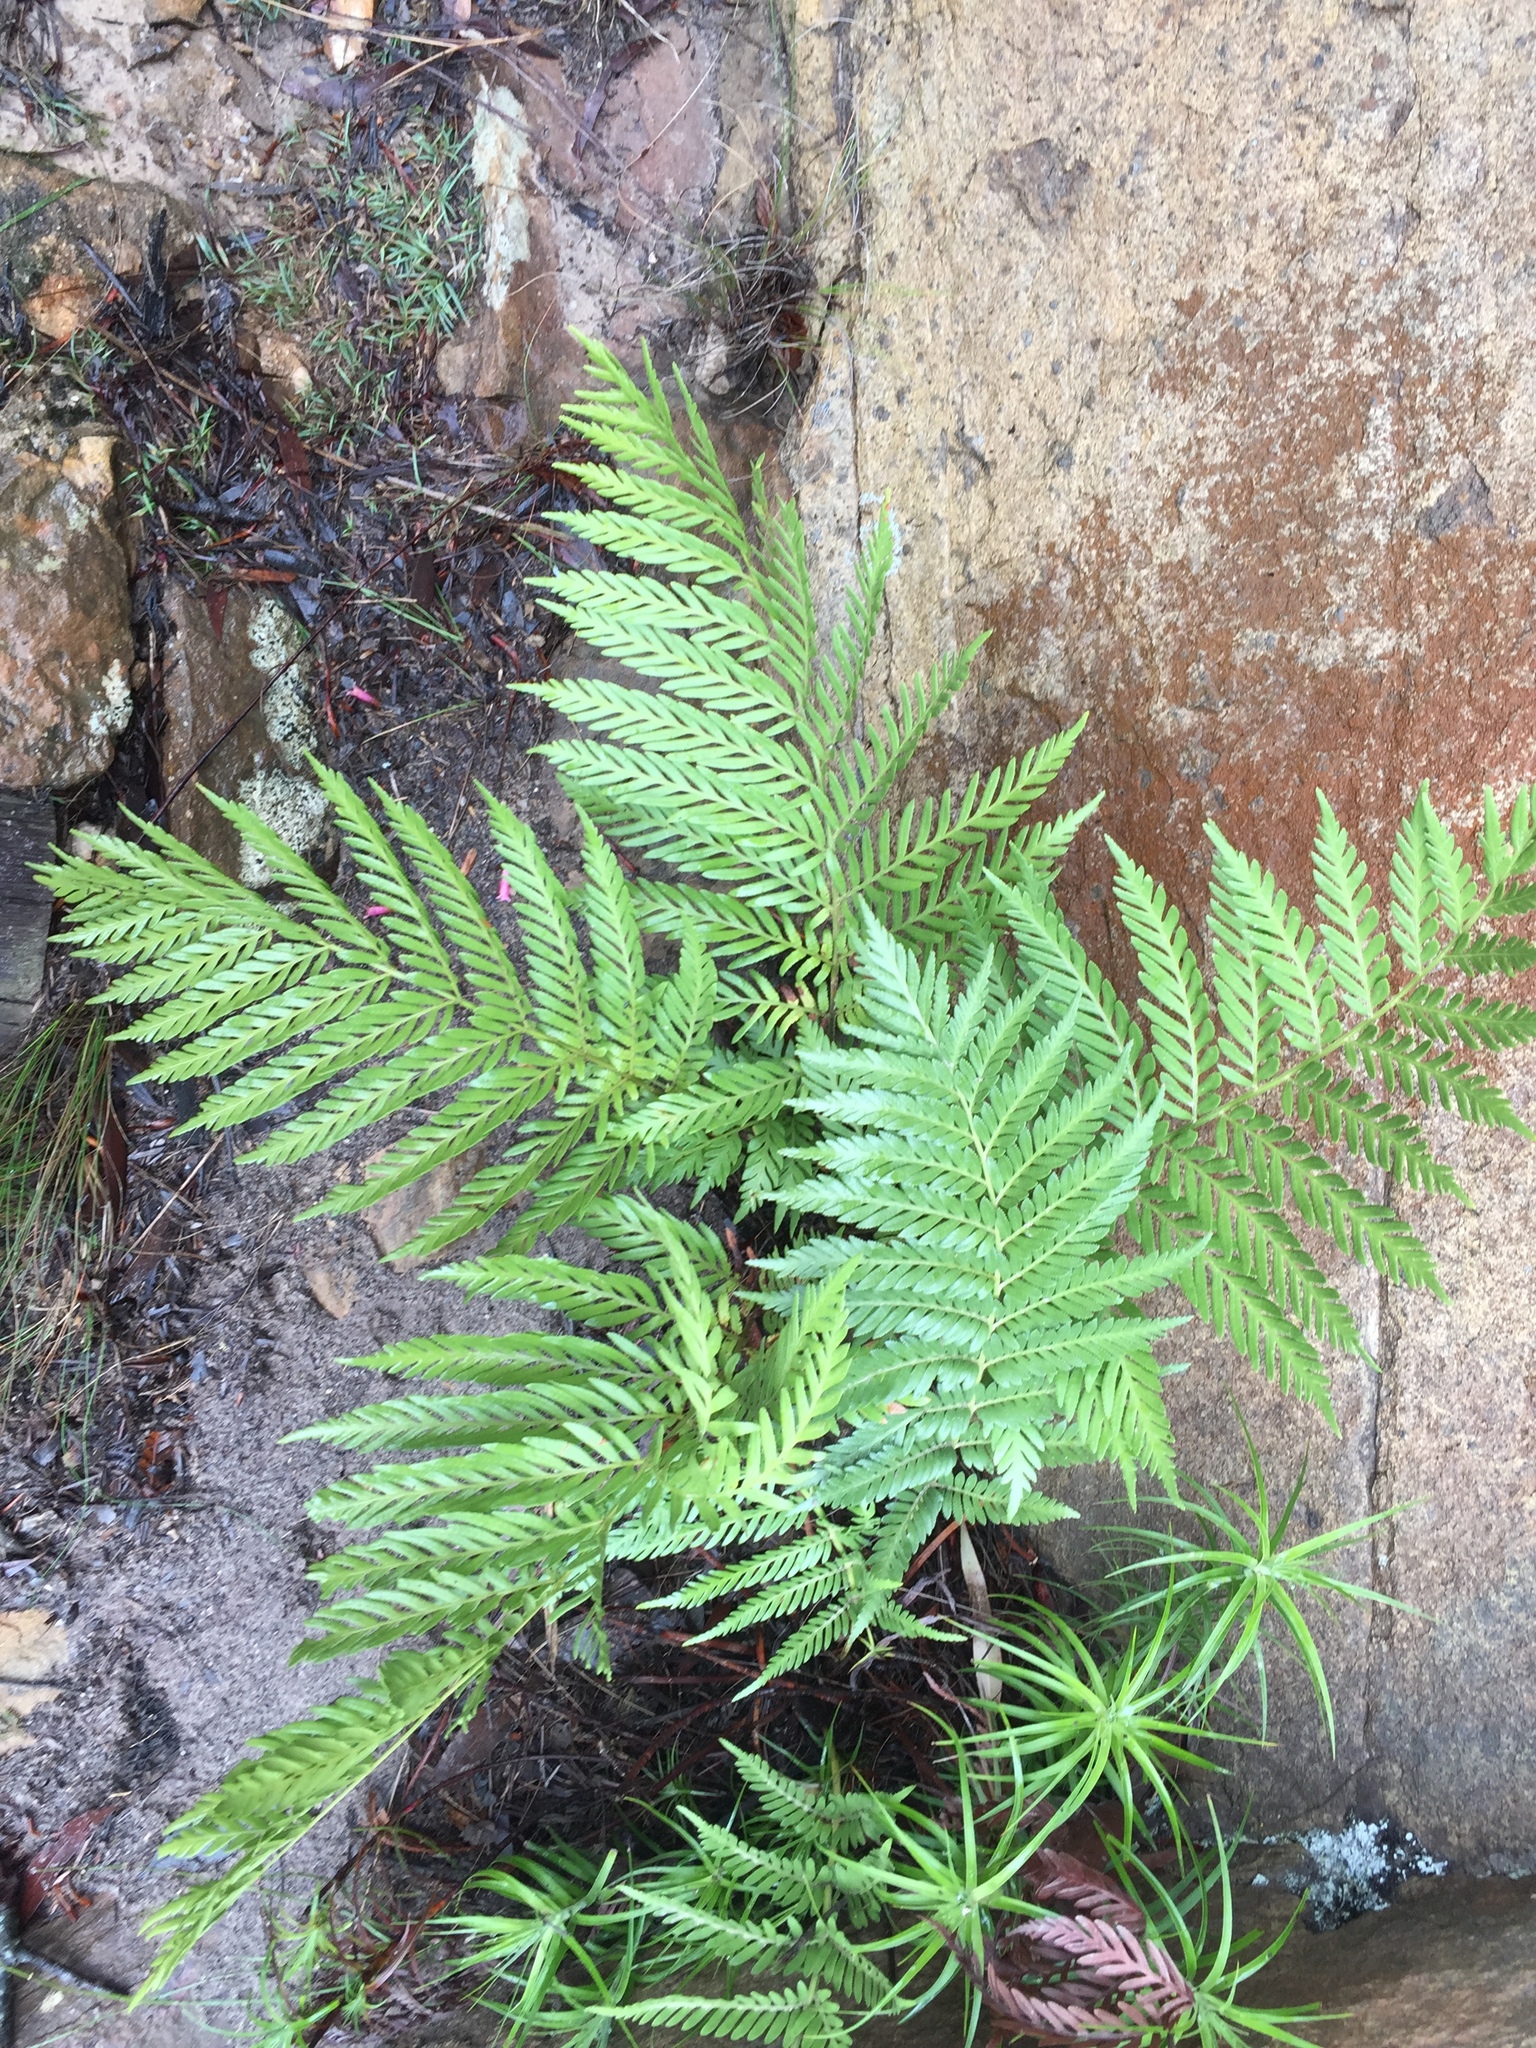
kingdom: Plantae
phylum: Tracheophyta
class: Polypodiopsida
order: Osmundales
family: Osmundaceae
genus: Todea
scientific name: Todea barbara
